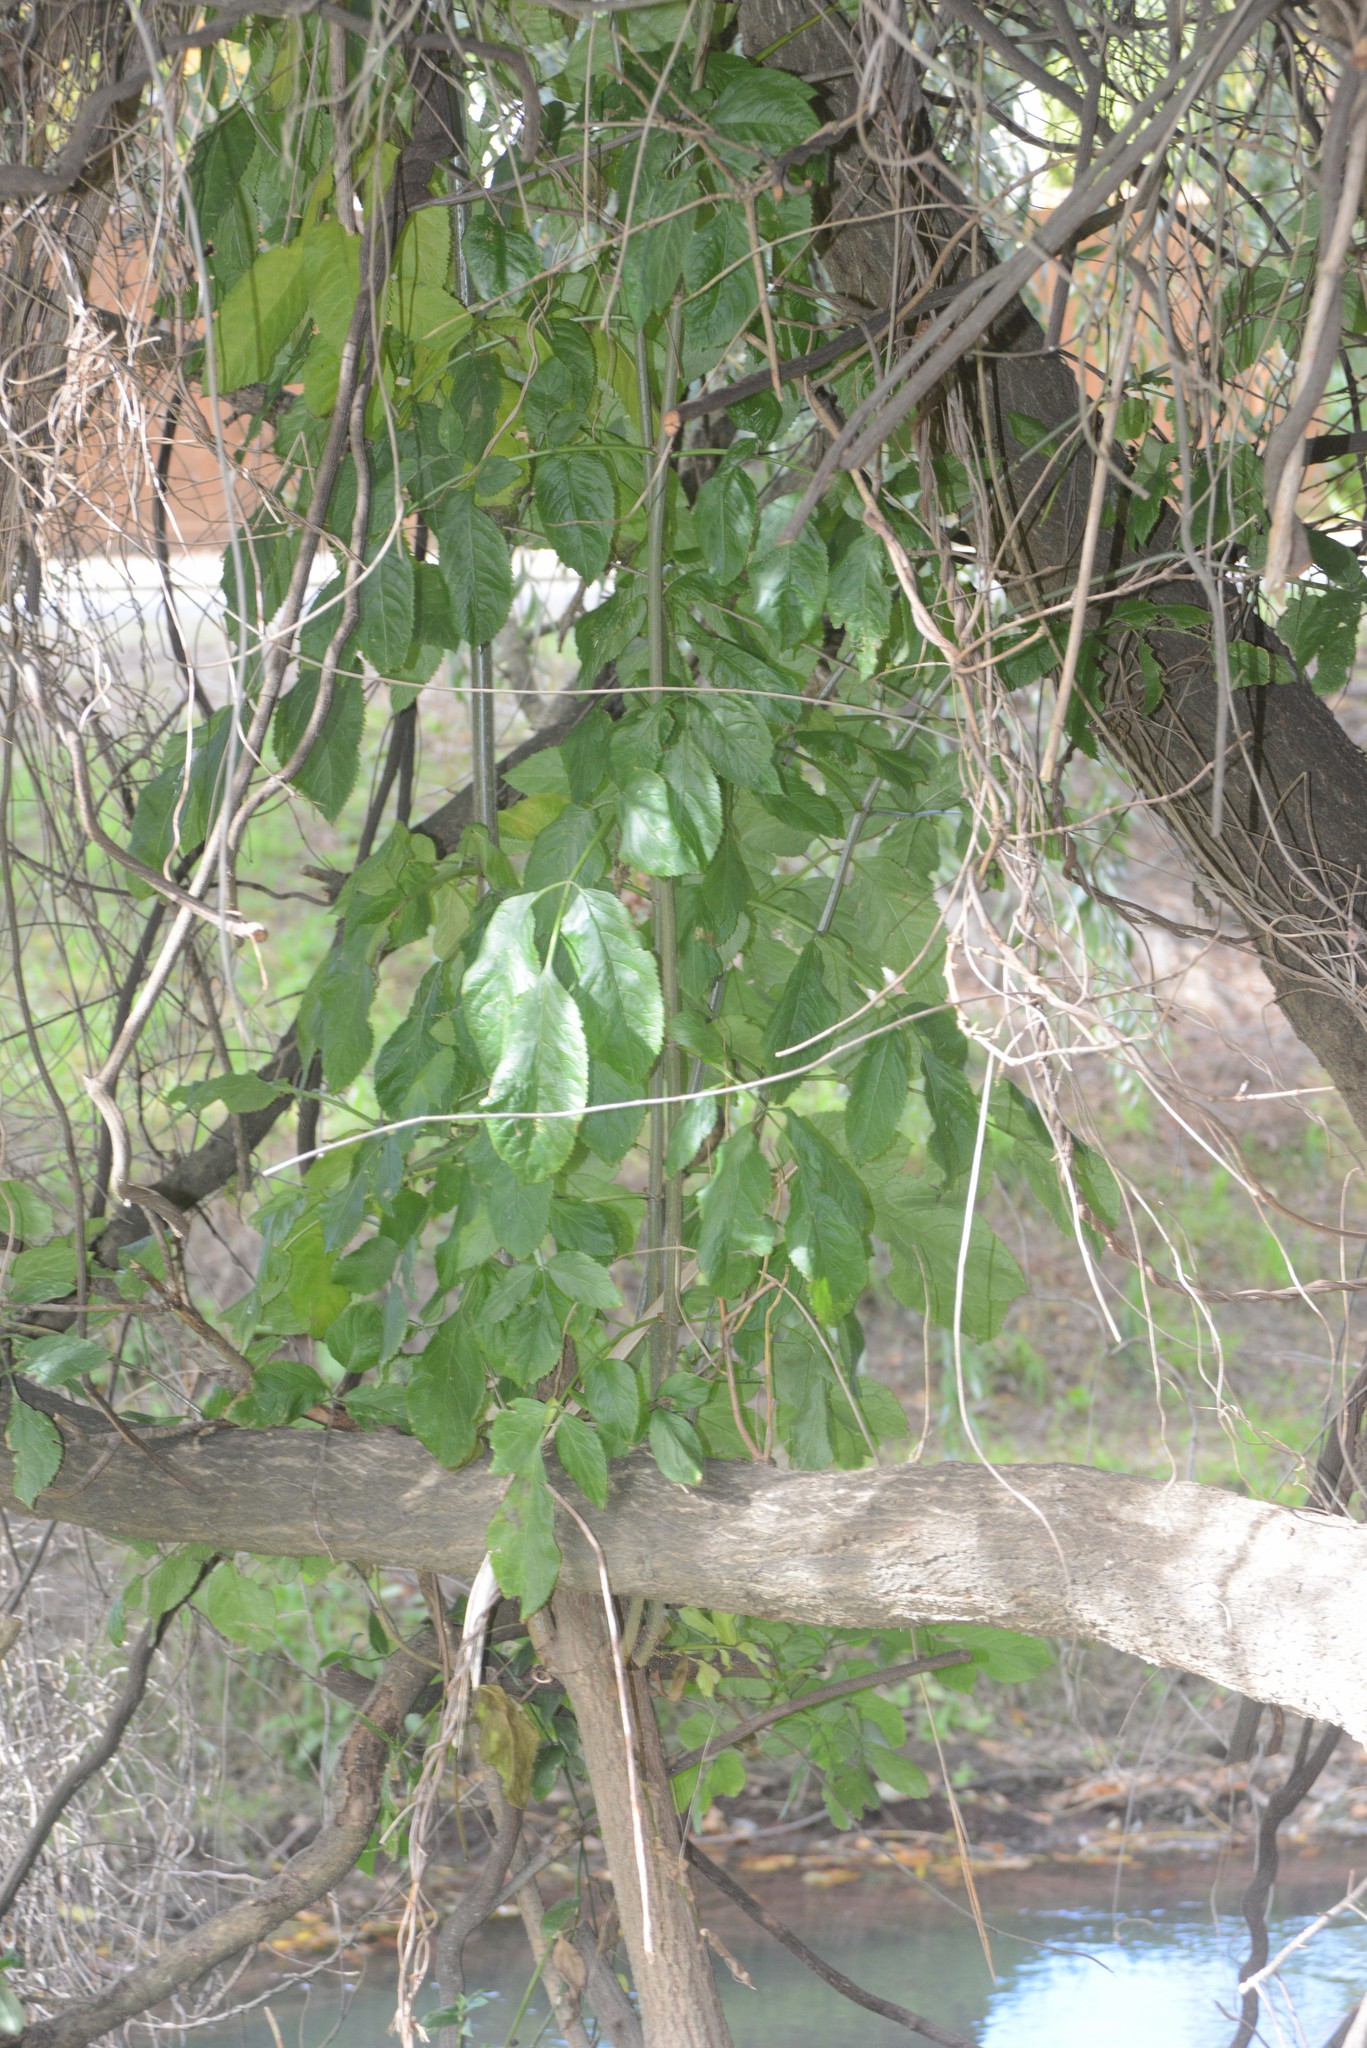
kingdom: Plantae
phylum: Tracheophyta
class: Magnoliopsida
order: Dipsacales
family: Viburnaceae
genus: Sambucus
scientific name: Sambucus nigra
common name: Elder
